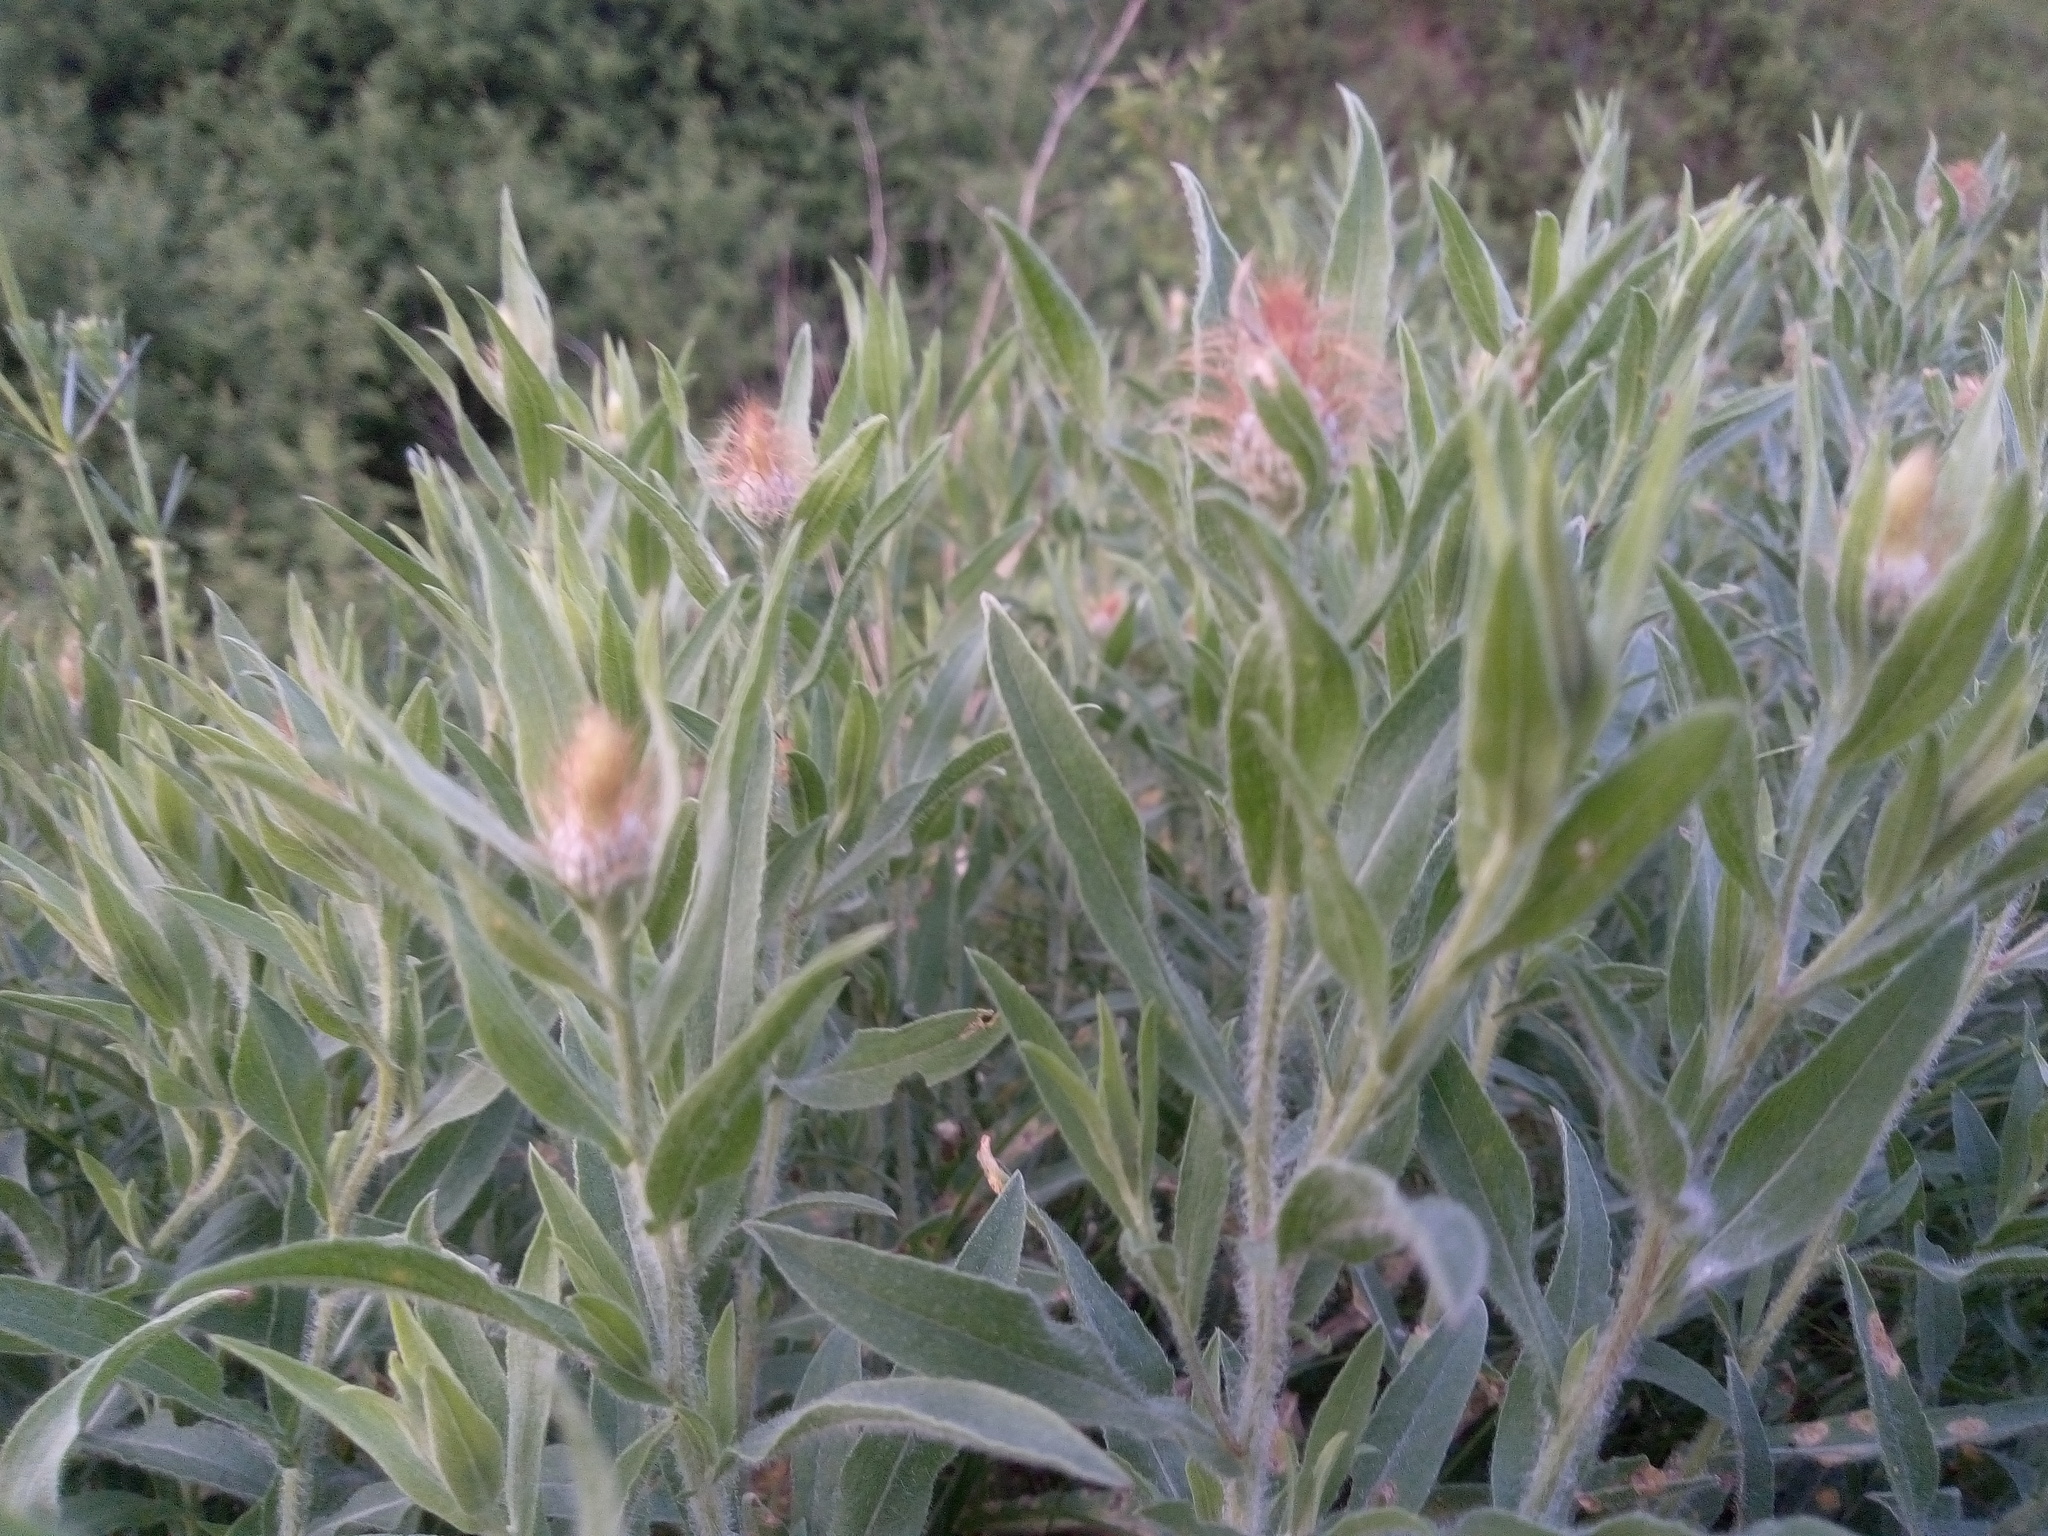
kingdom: Plantae
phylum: Tracheophyta
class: Magnoliopsida
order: Asterales
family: Asteraceae
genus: Centaurea
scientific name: Centaurea trichocephala
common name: Feather-head knapweed
